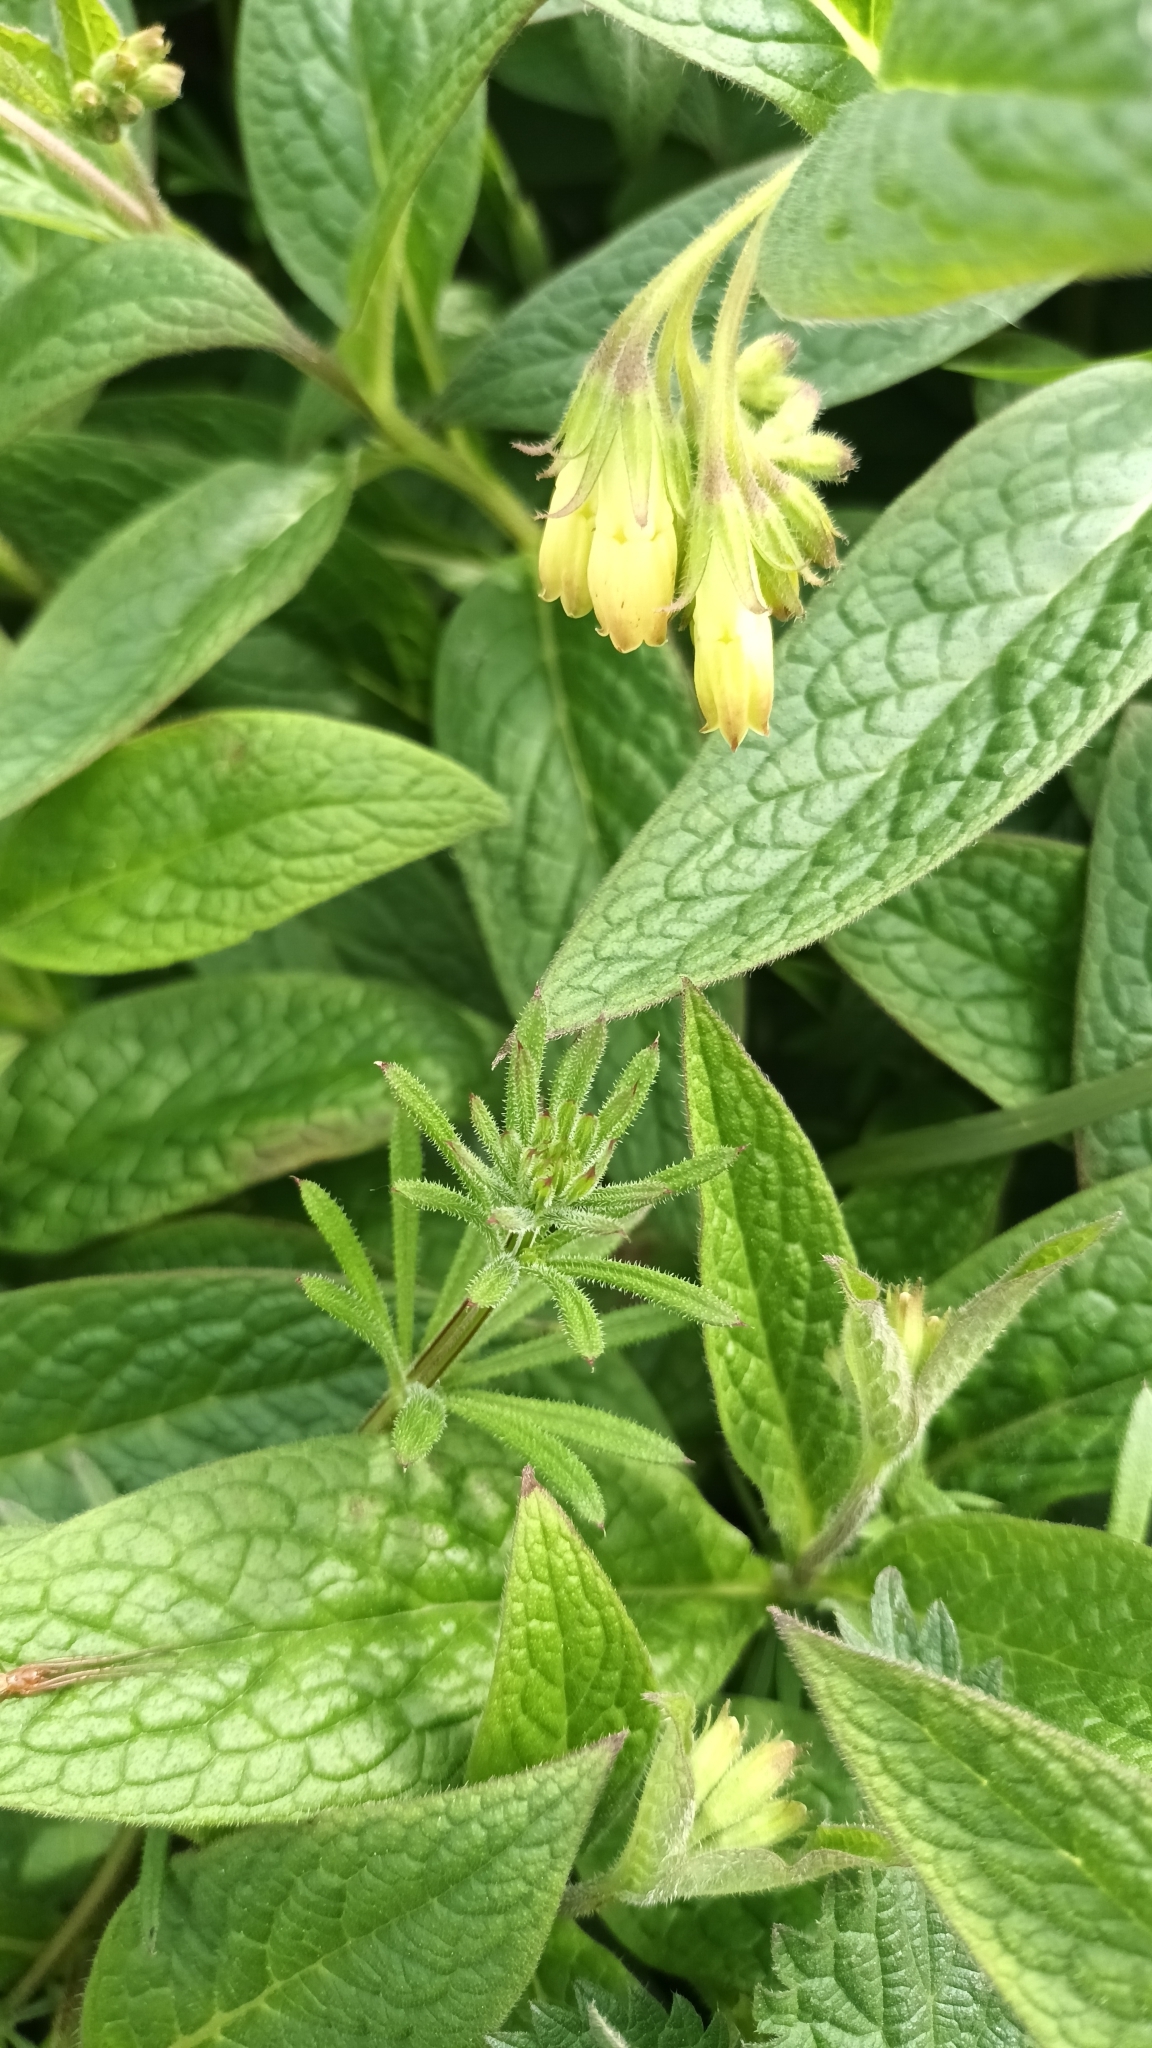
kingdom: Plantae
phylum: Tracheophyta
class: Magnoliopsida
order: Boraginales
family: Boraginaceae
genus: Symphytum
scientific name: Symphytum tuberosum
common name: Tuberous comfrey
